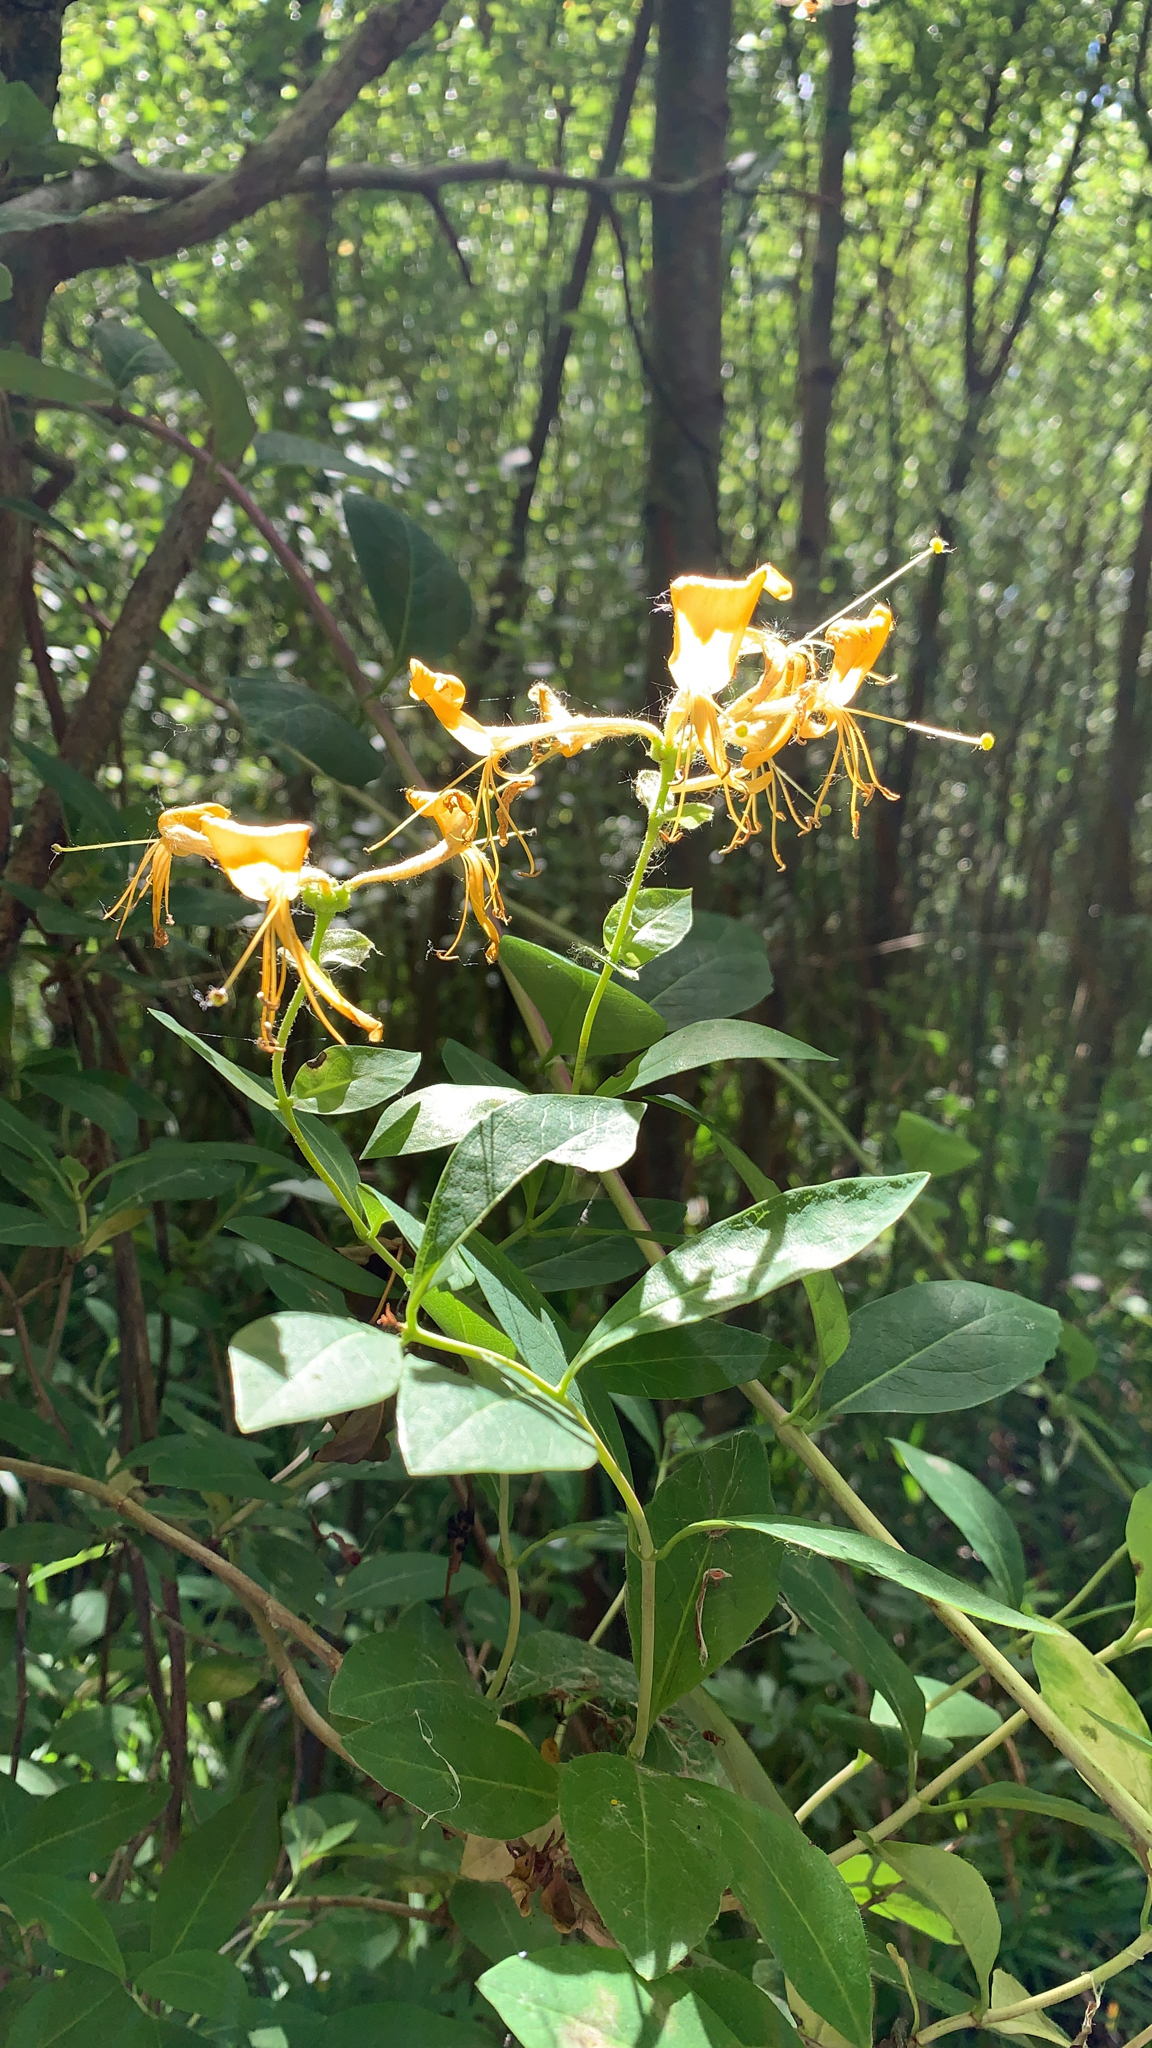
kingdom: Plantae
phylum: Tracheophyta
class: Magnoliopsida
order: Dipsacales
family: Caprifoliaceae
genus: Lonicera
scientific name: Lonicera periclymenum
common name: European honeysuckle
